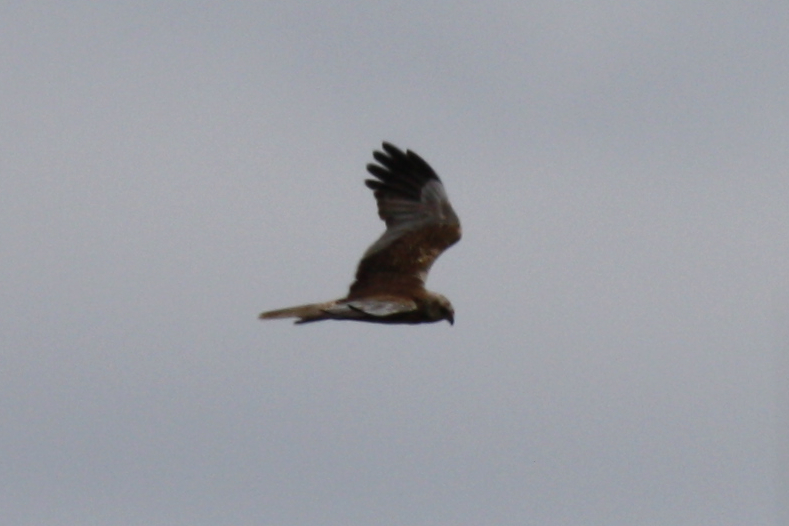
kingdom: Animalia
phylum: Chordata
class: Aves
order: Accipitriformes
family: Accipitridae
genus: Circus
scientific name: Circus aeruginosus
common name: Western marsh harrier
